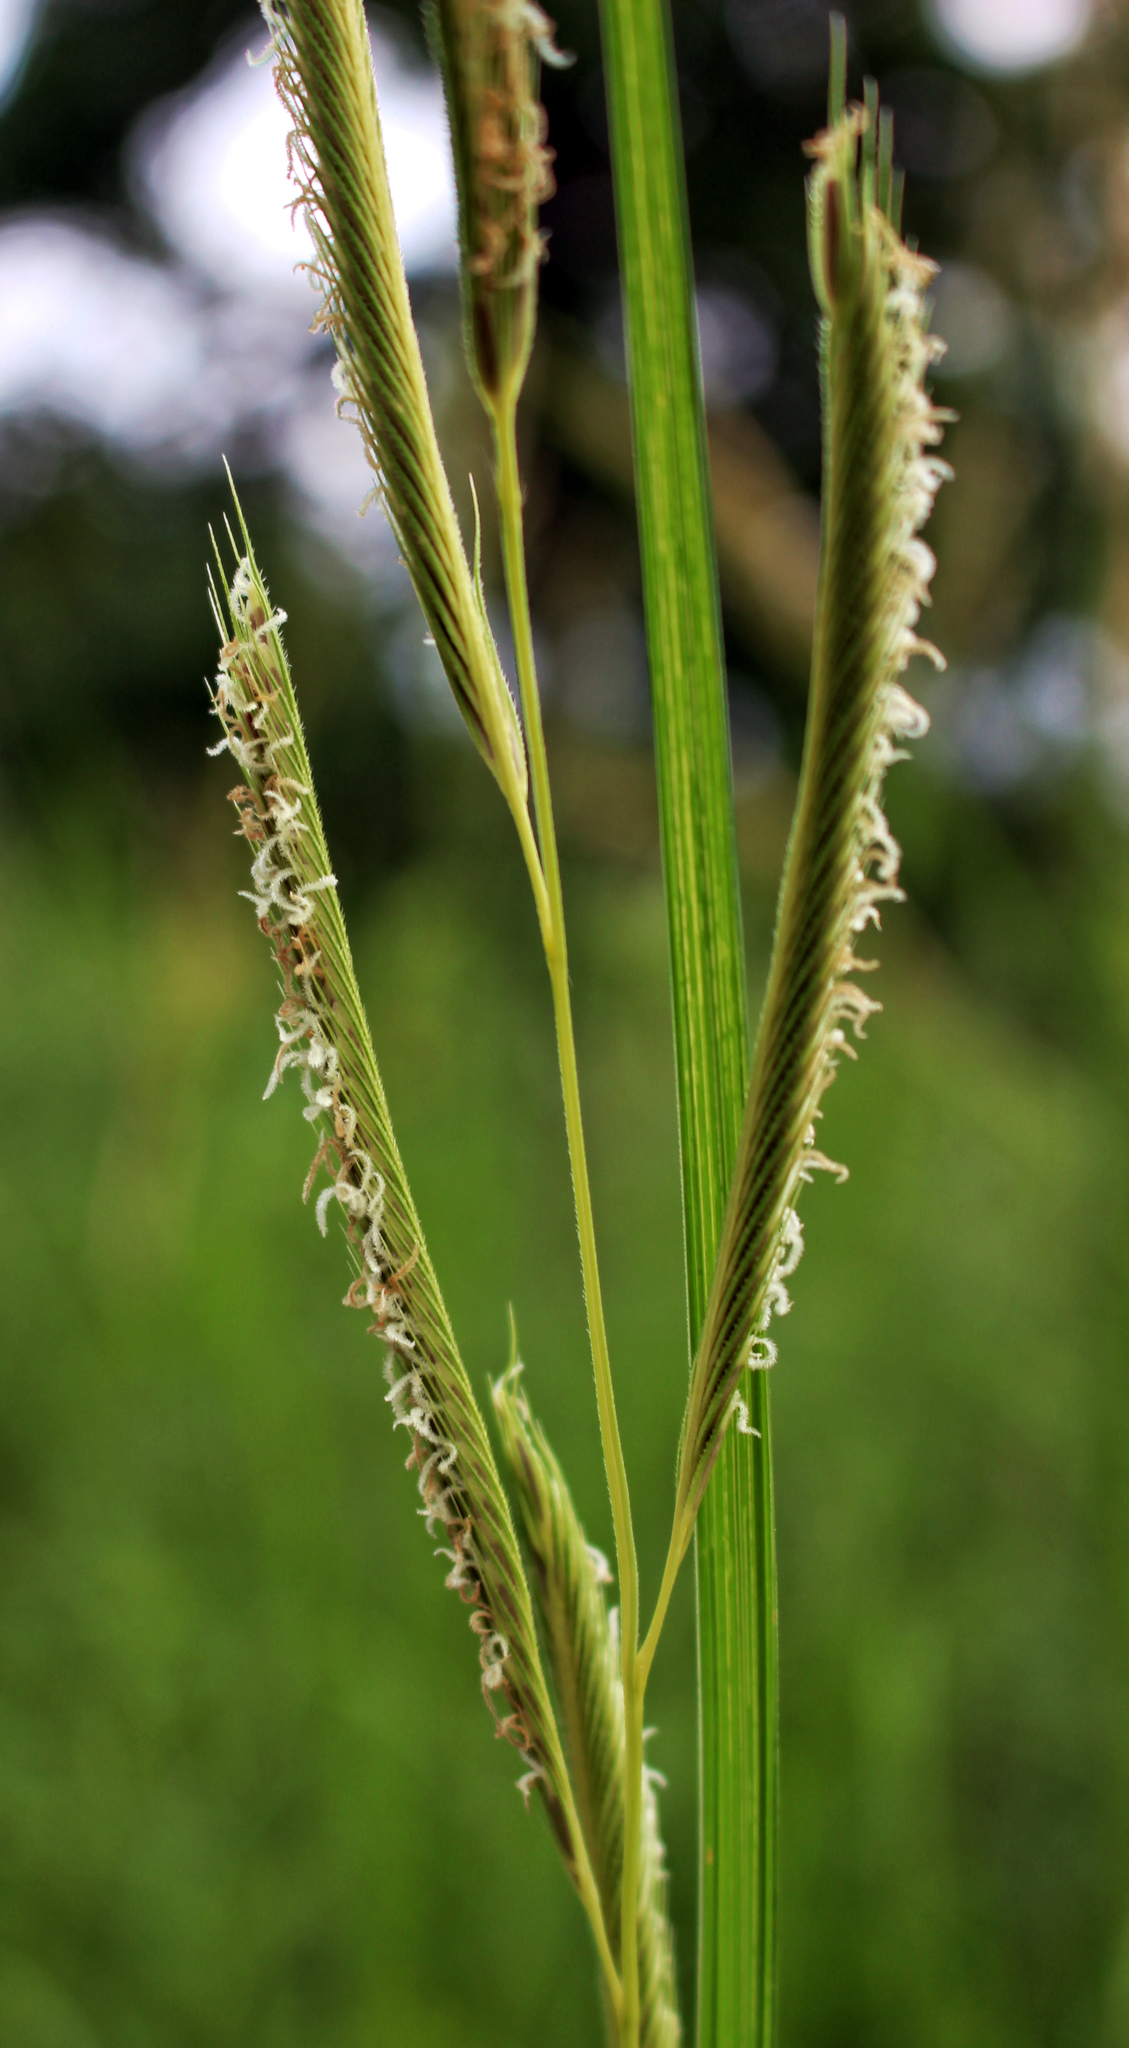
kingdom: Plantae
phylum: Tracheophyta
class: Liliopsida
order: Poales
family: Poaceae
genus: Sporobolus
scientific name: Sporobolus michauxianus
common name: Freshwater cordgrass
